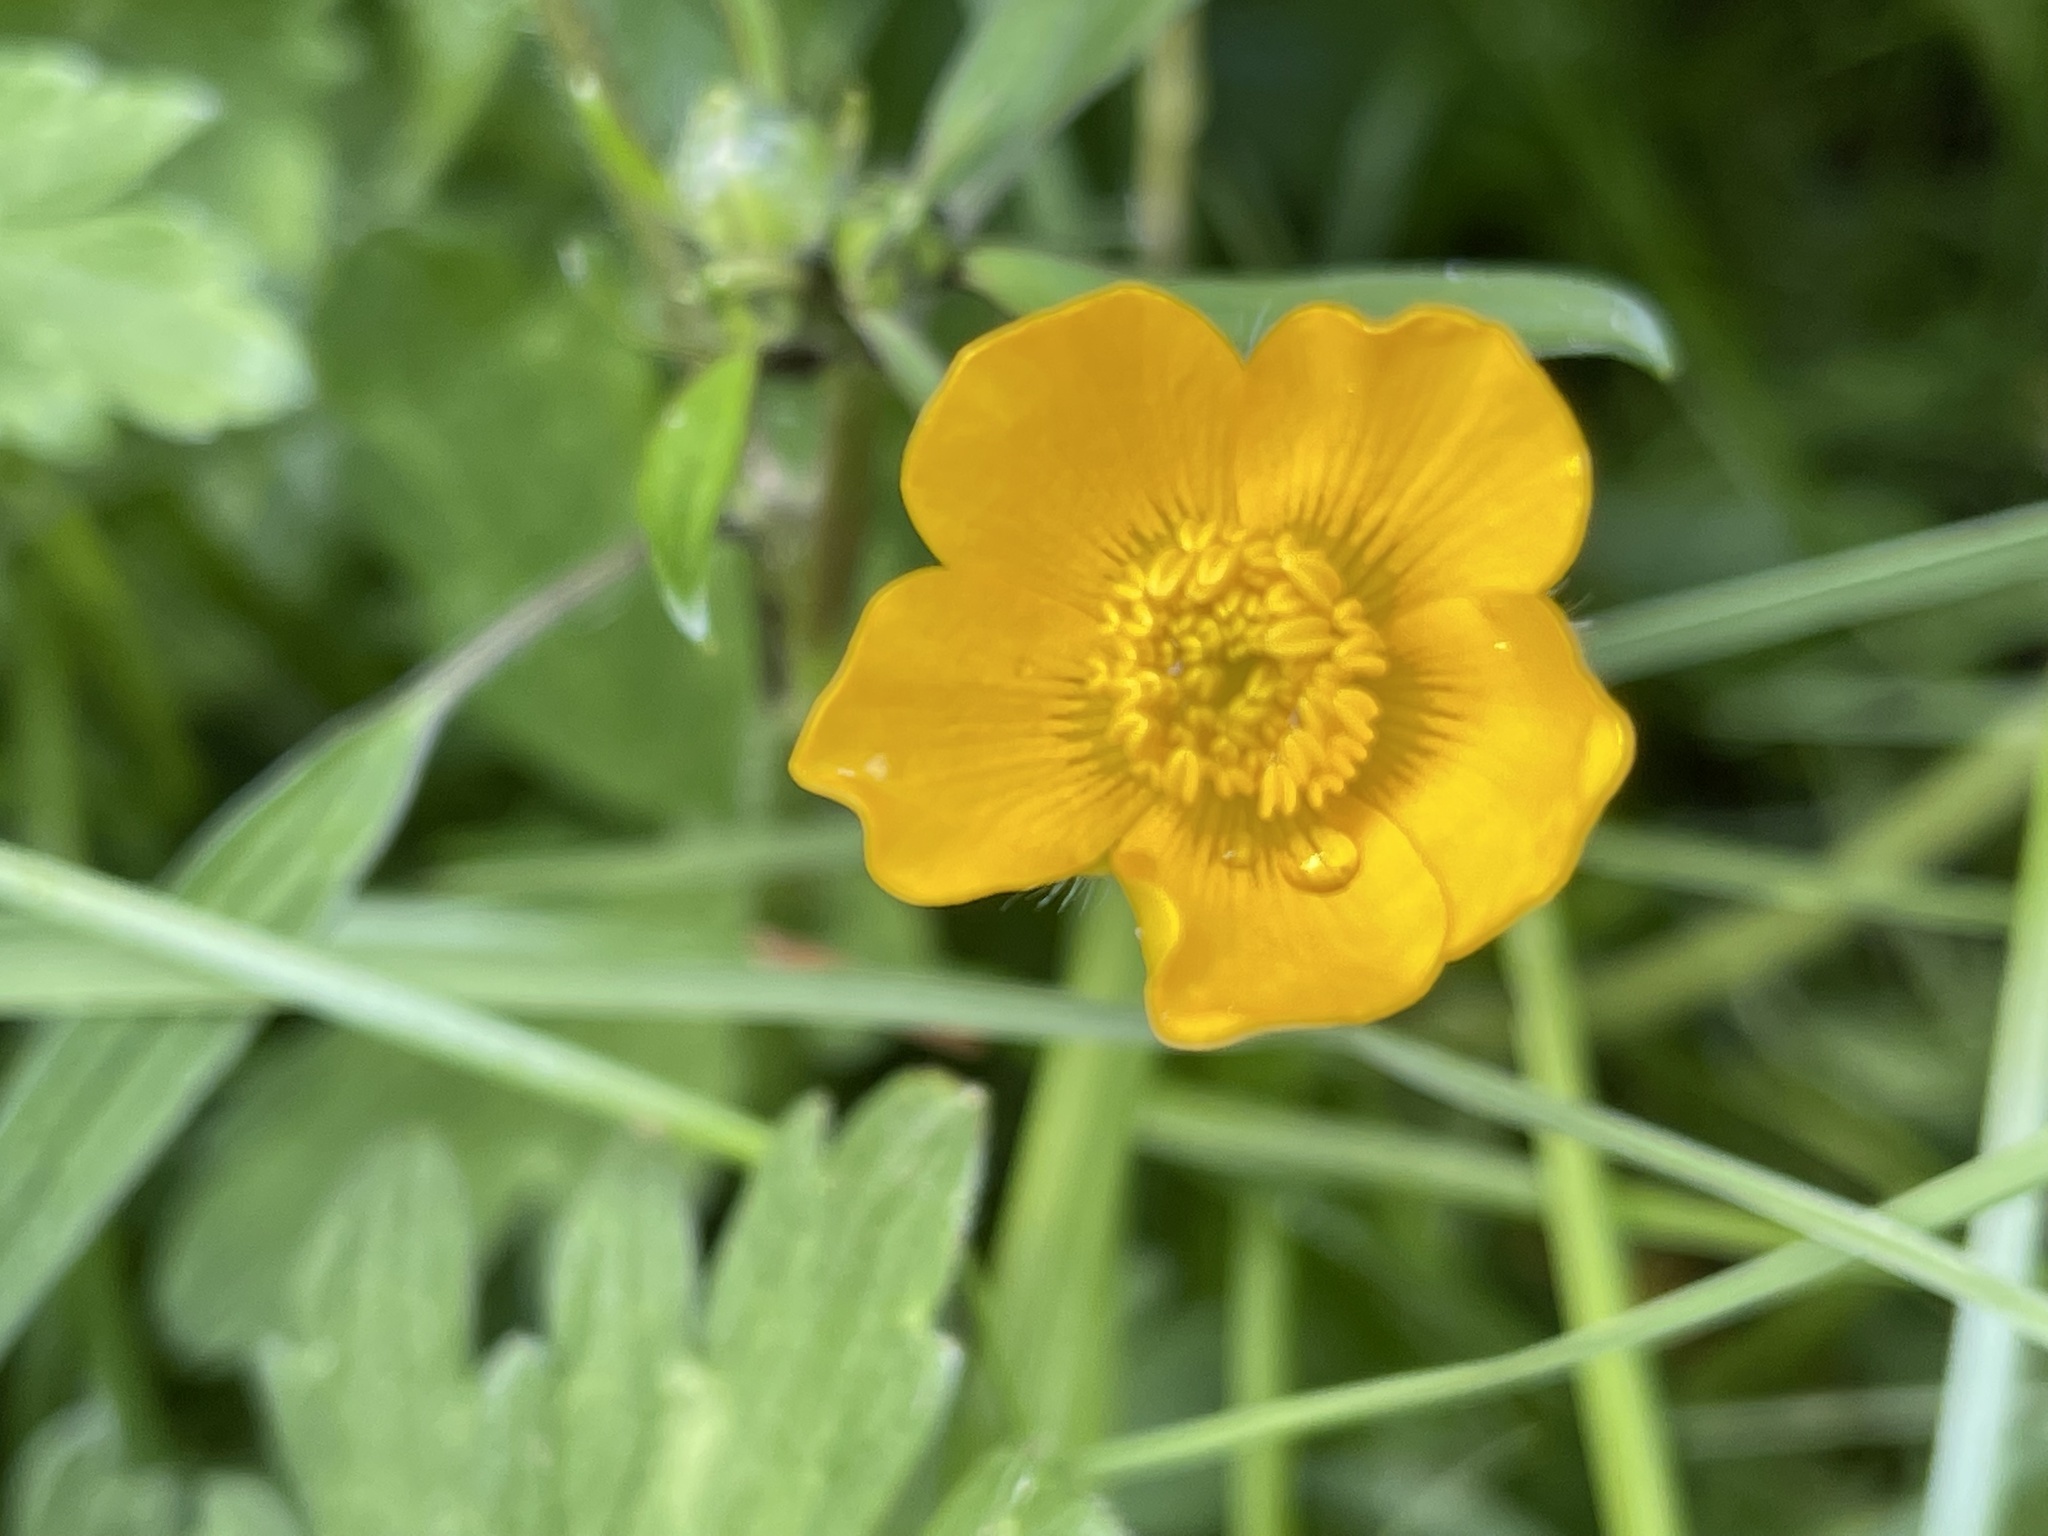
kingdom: Plantae
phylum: Tracheophyta
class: Magnoliopsida
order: Ranunculales
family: Ranunculaceae
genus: Ranunculus
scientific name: Ranunculus repens
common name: Creeping buttercup
